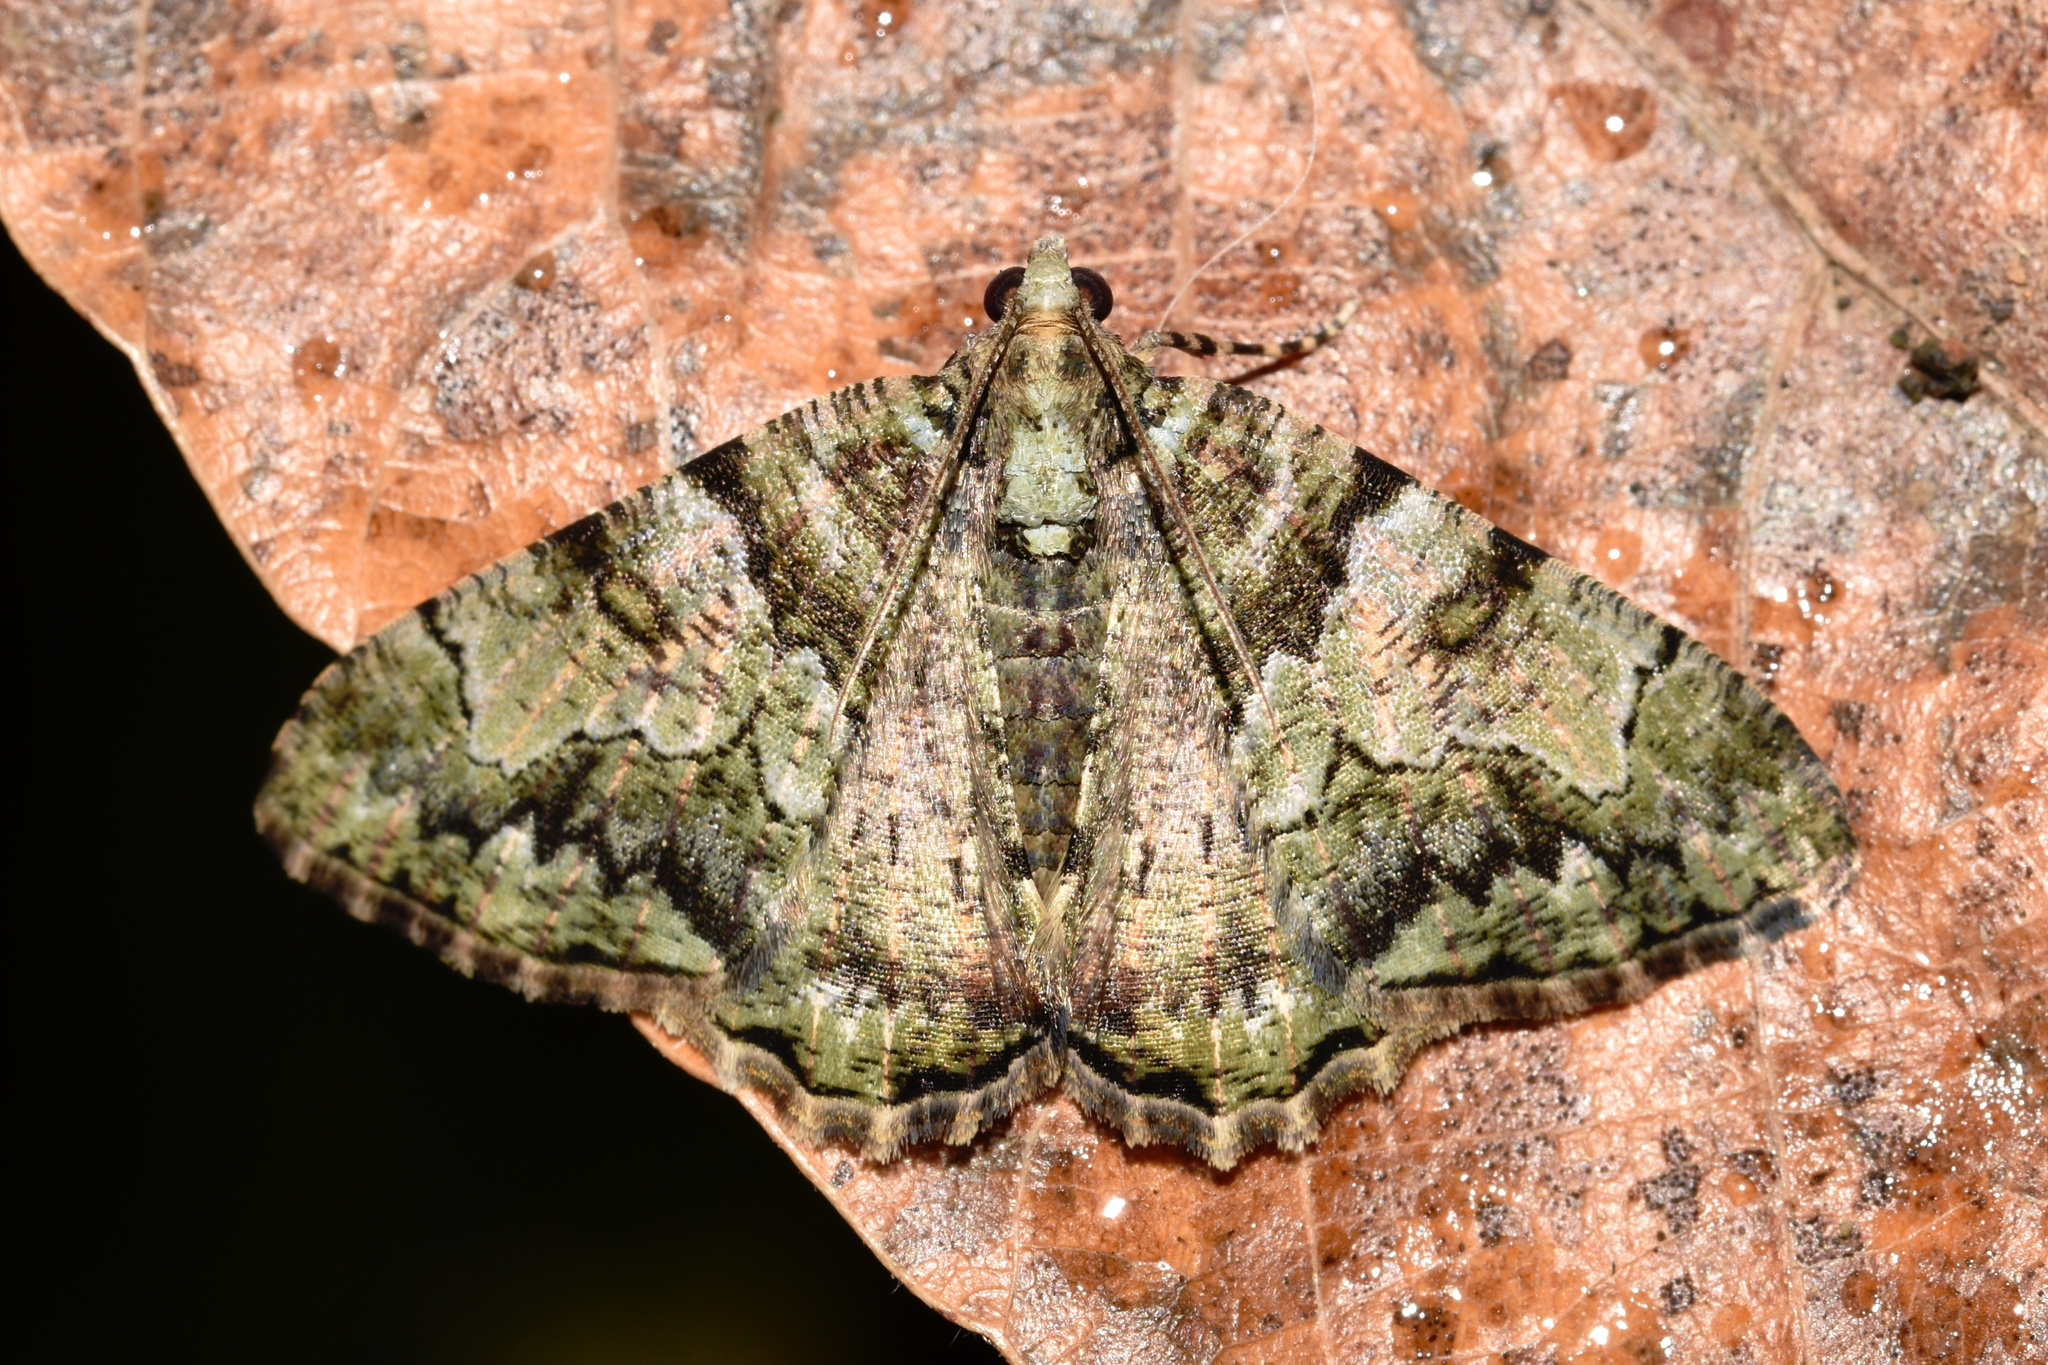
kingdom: Animalia
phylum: Arthropoda
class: Insecta
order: Lepidoptera
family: Geometridae
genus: Xylopteryx
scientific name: Xylopteryx prasinaria
